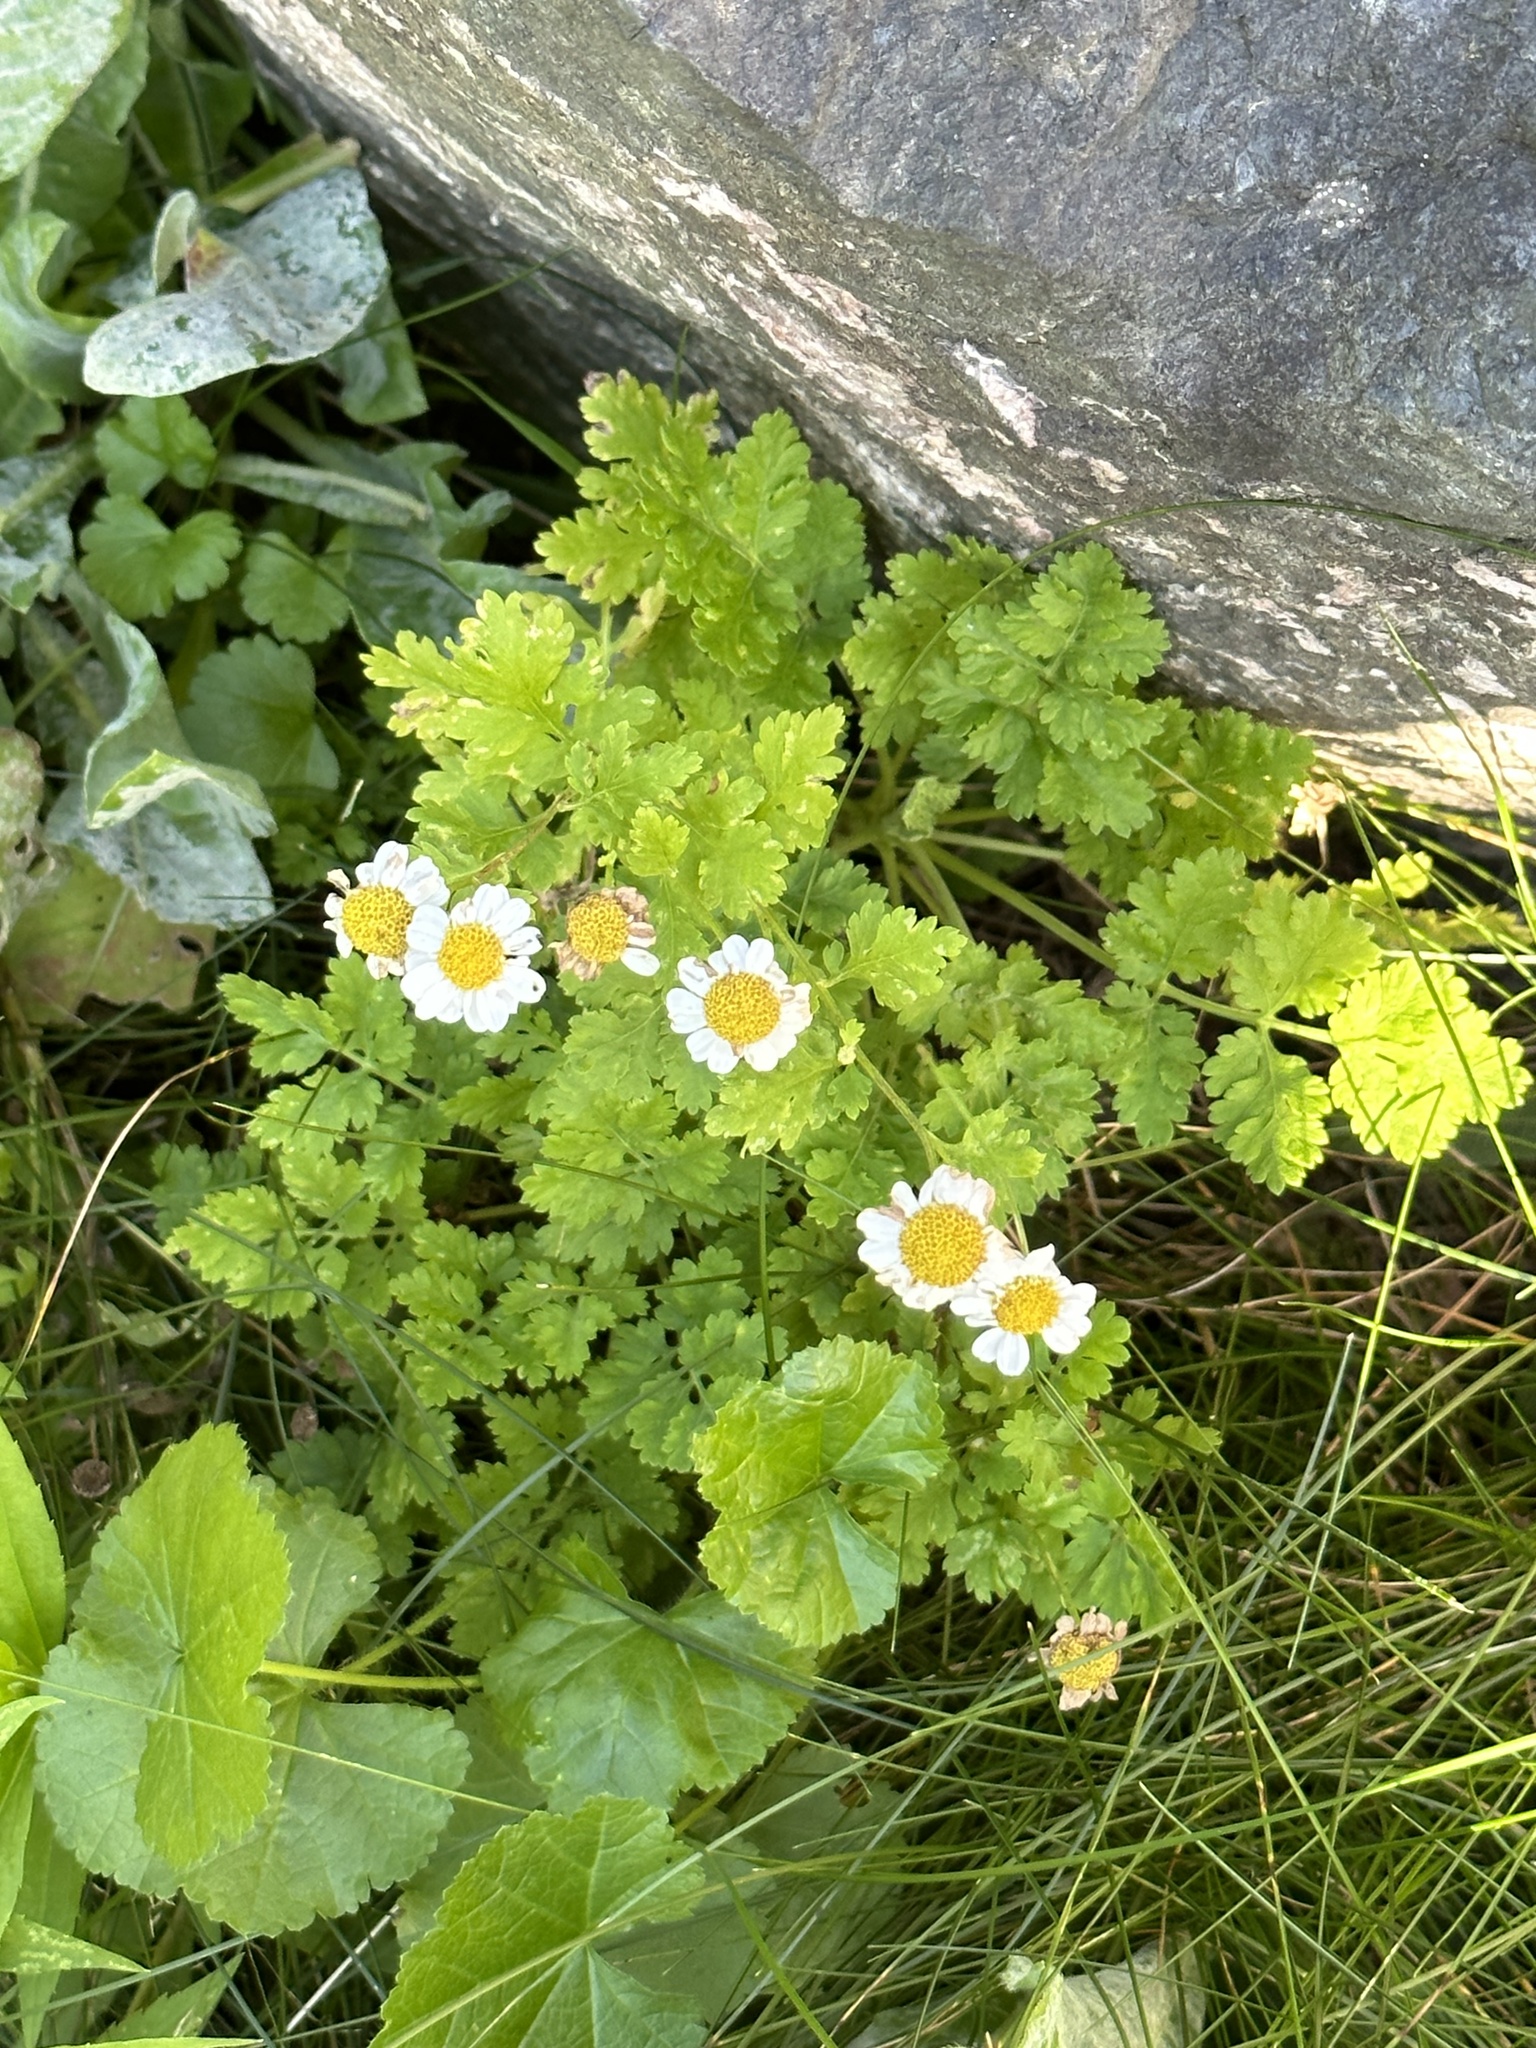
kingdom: Plantae
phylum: Tracheophyta
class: Magnoliopsida
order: Asterales
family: Asteraceae
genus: Tanacetum
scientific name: Tanacetum parthenium
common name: Feverfew
